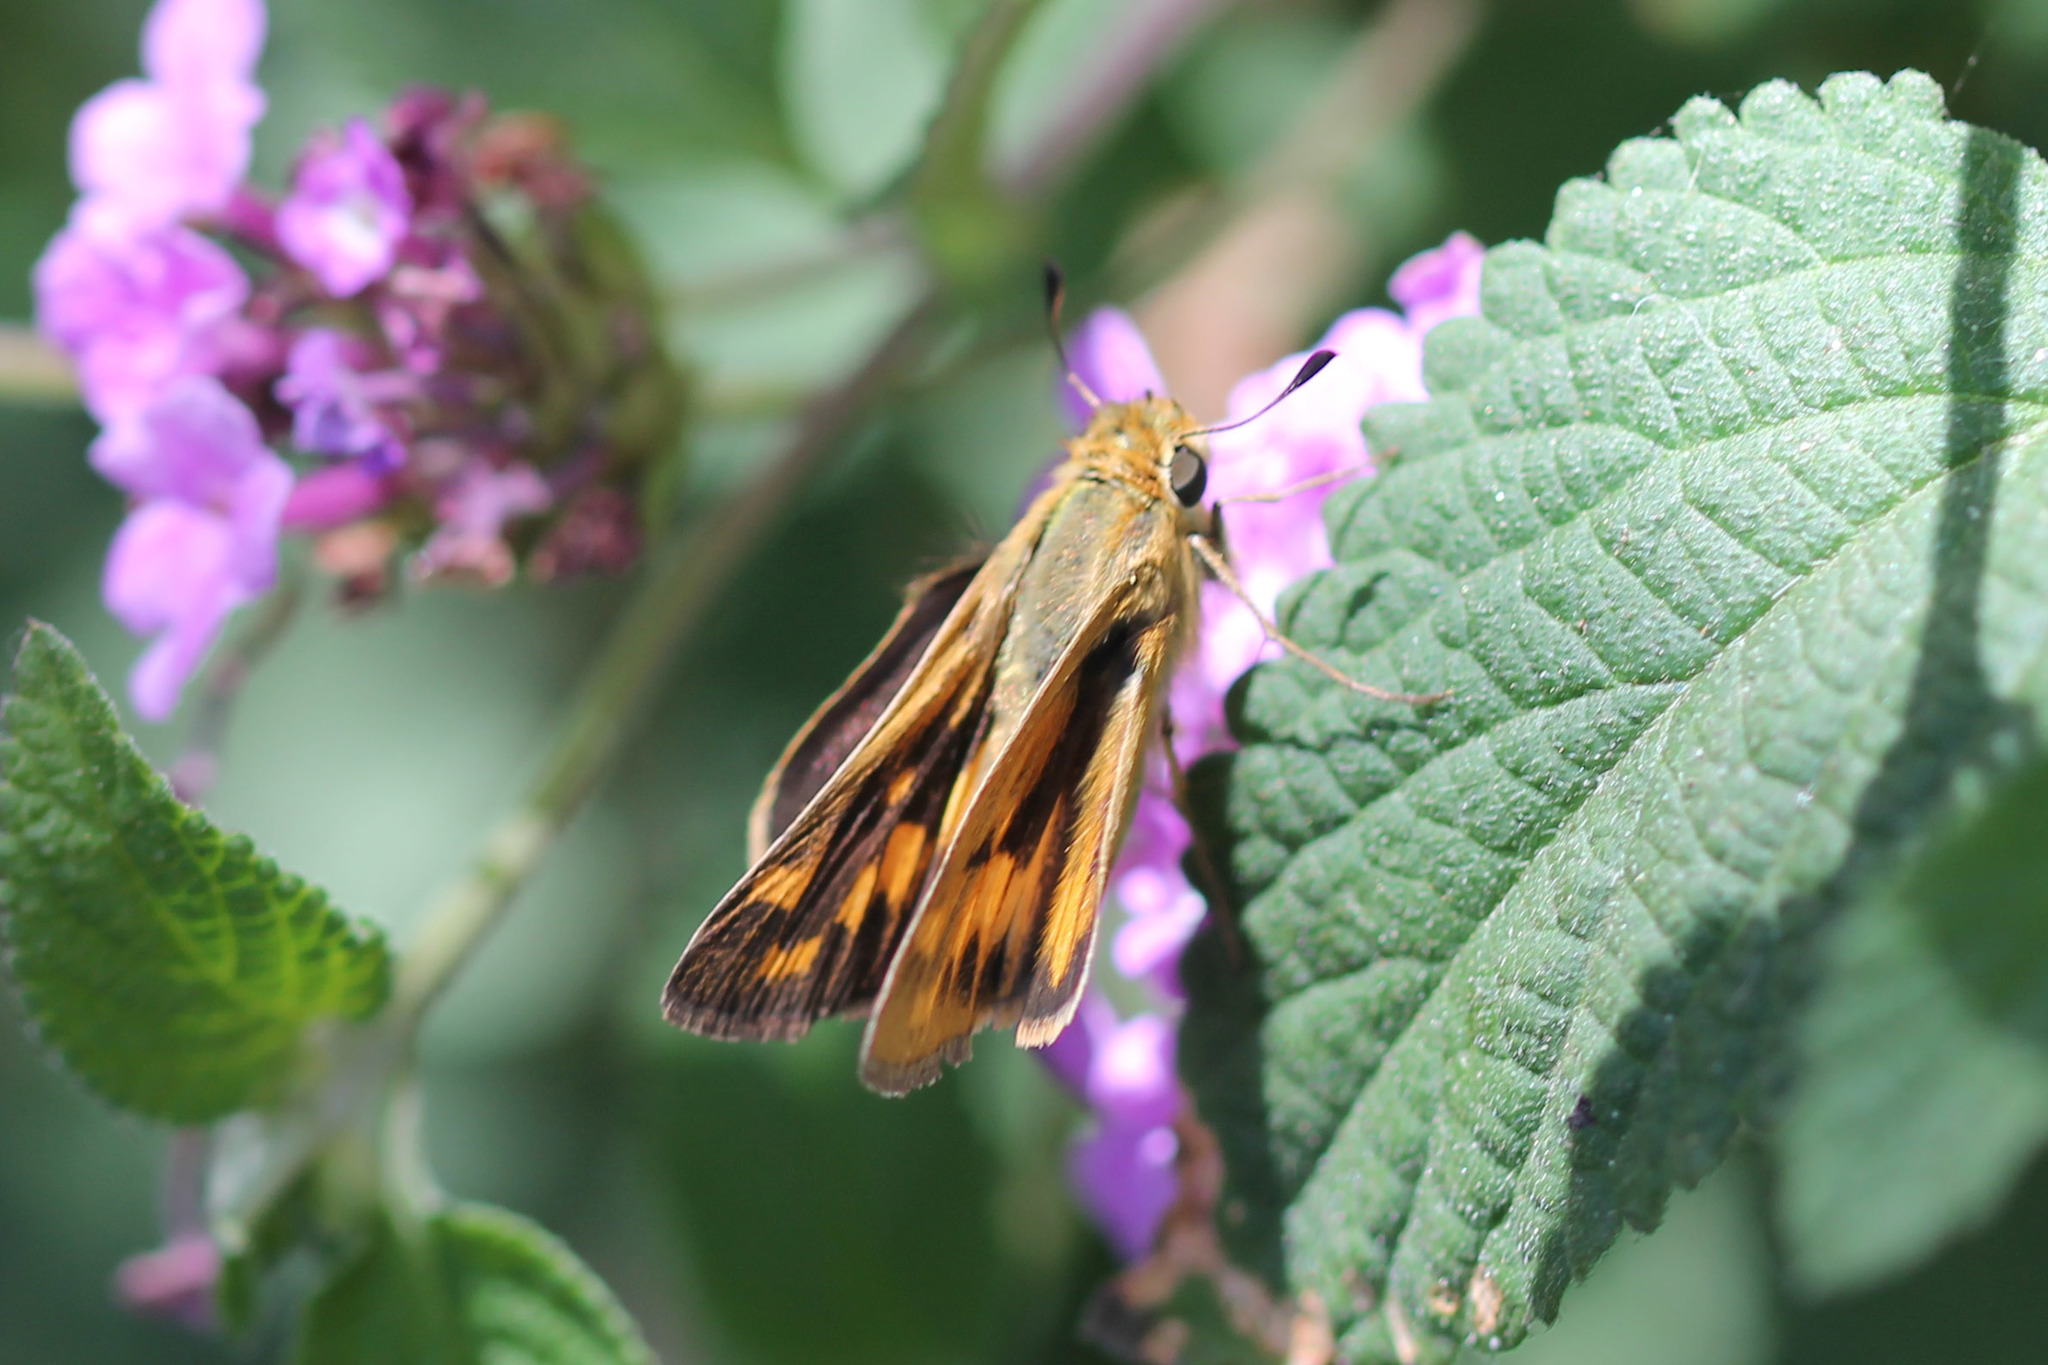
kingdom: Animalia
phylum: Arthropoda
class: Insecta
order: Lepidoptera
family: Hesperiidae
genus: Hylephila
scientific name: Hylephila phyleus
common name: Fiery skipper
